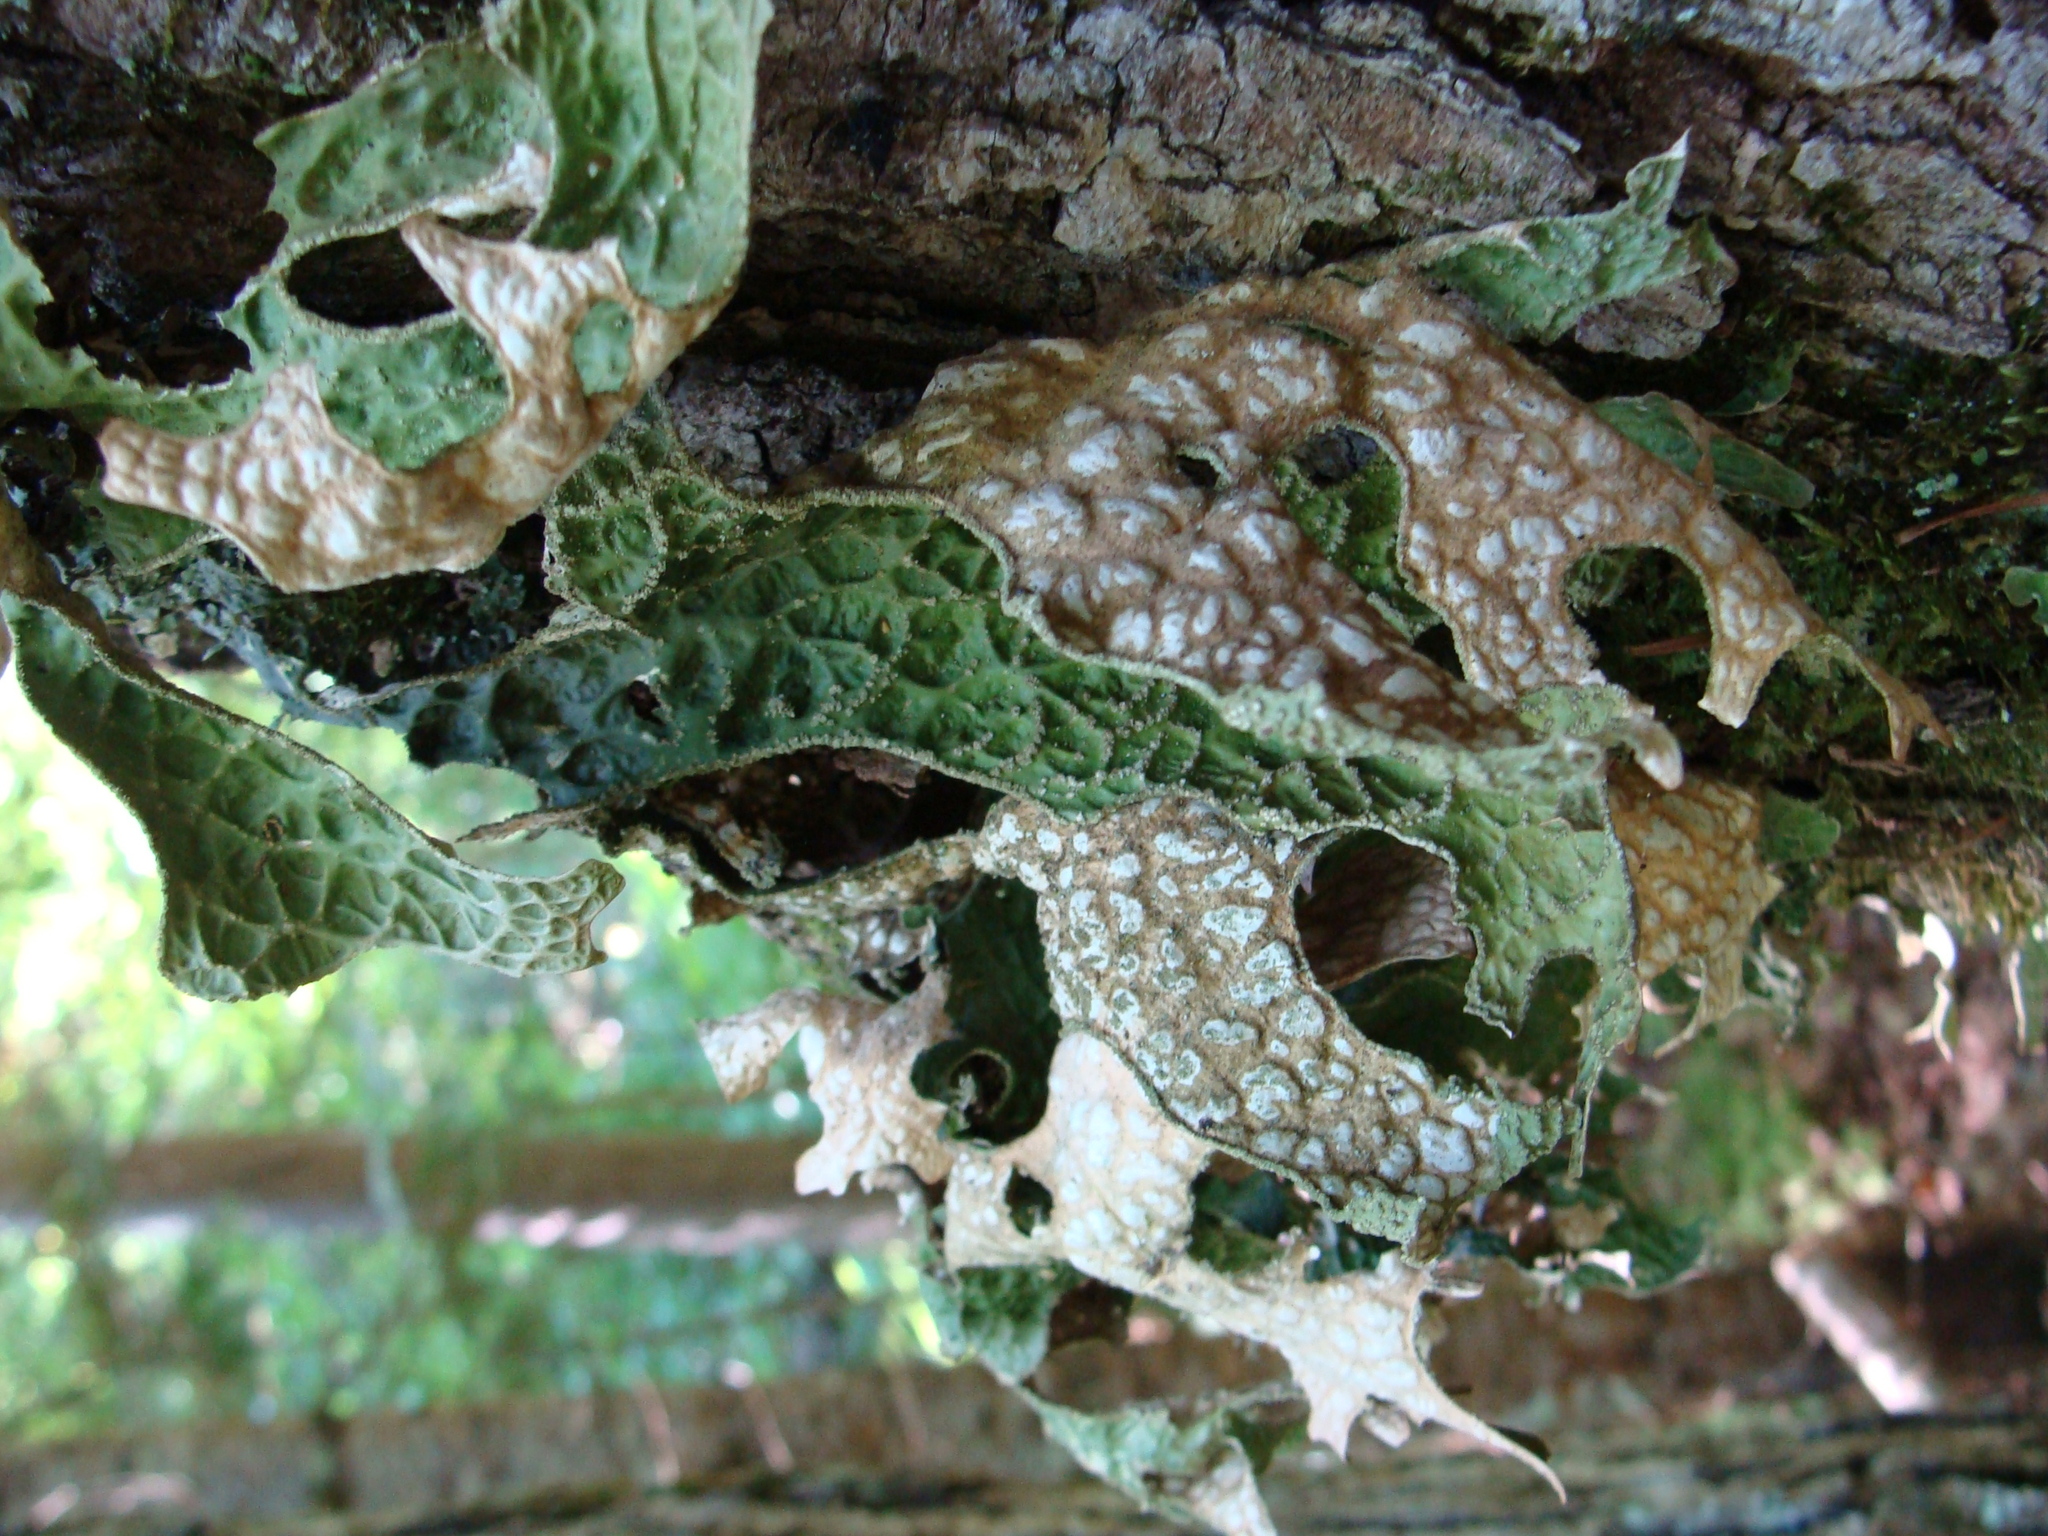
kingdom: Fungi
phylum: Ascomycota
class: Lecanoromycetes
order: Peltigerales
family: Lobariaceae
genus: Lobaria
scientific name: Lobaria pulmonaria
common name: Lungwort
